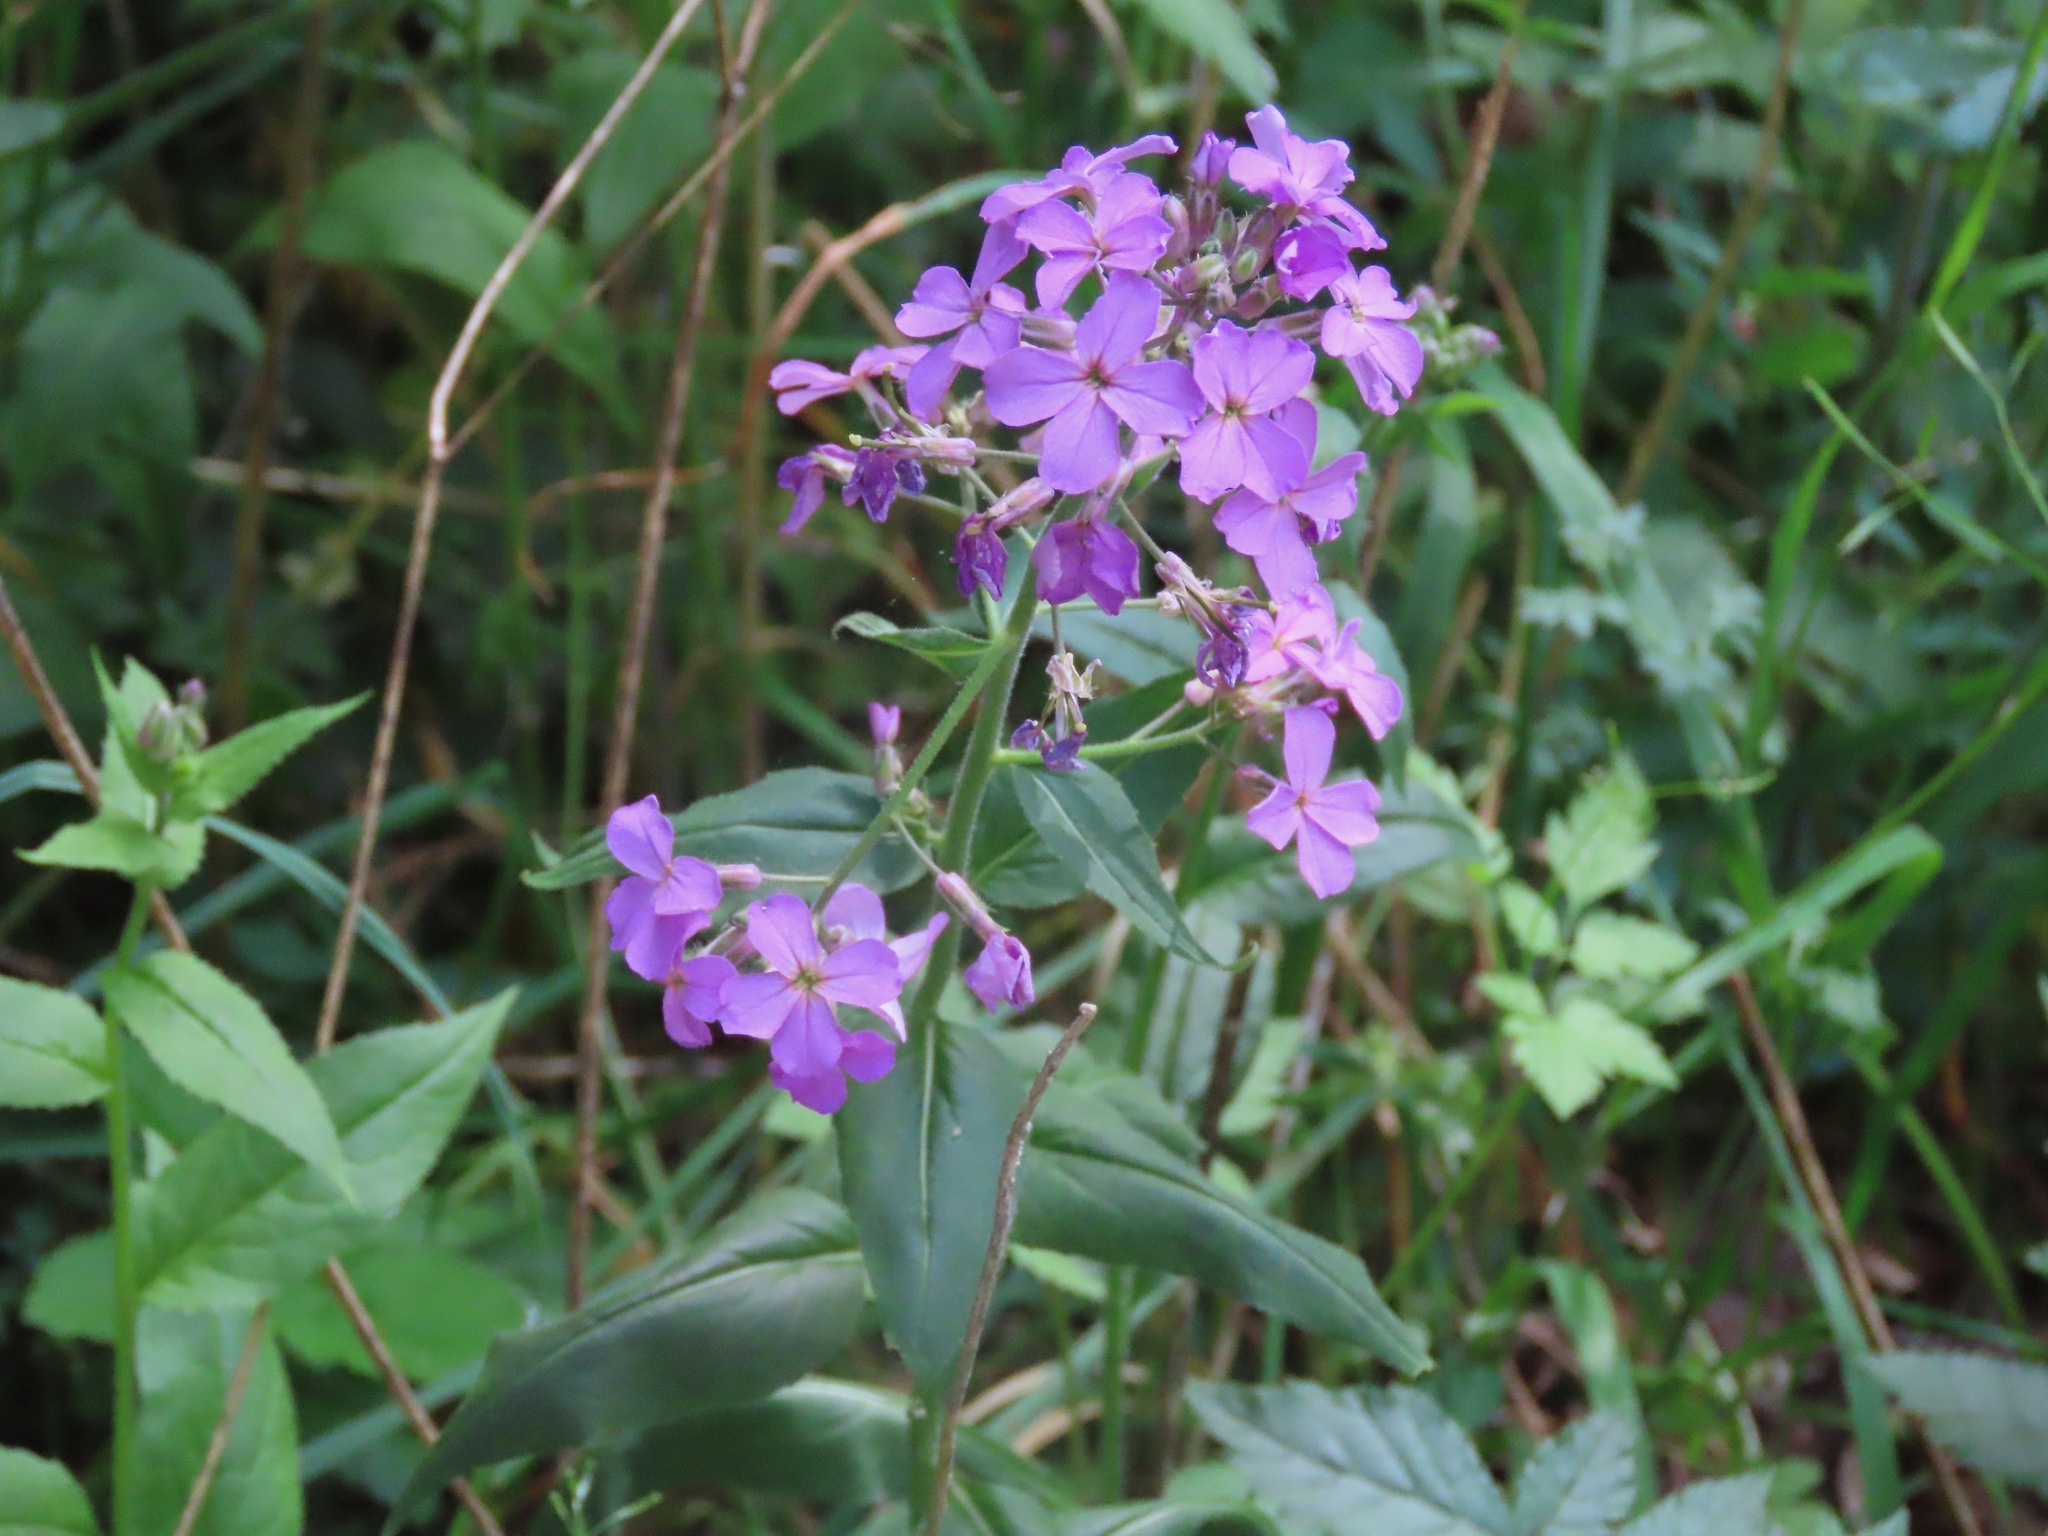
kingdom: Plantae
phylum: Tracheophyta
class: Magnoliopsida
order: Brassicales
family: Brassicaceae
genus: Hesperis
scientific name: Hesperis matronalis
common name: Dame's-violet
